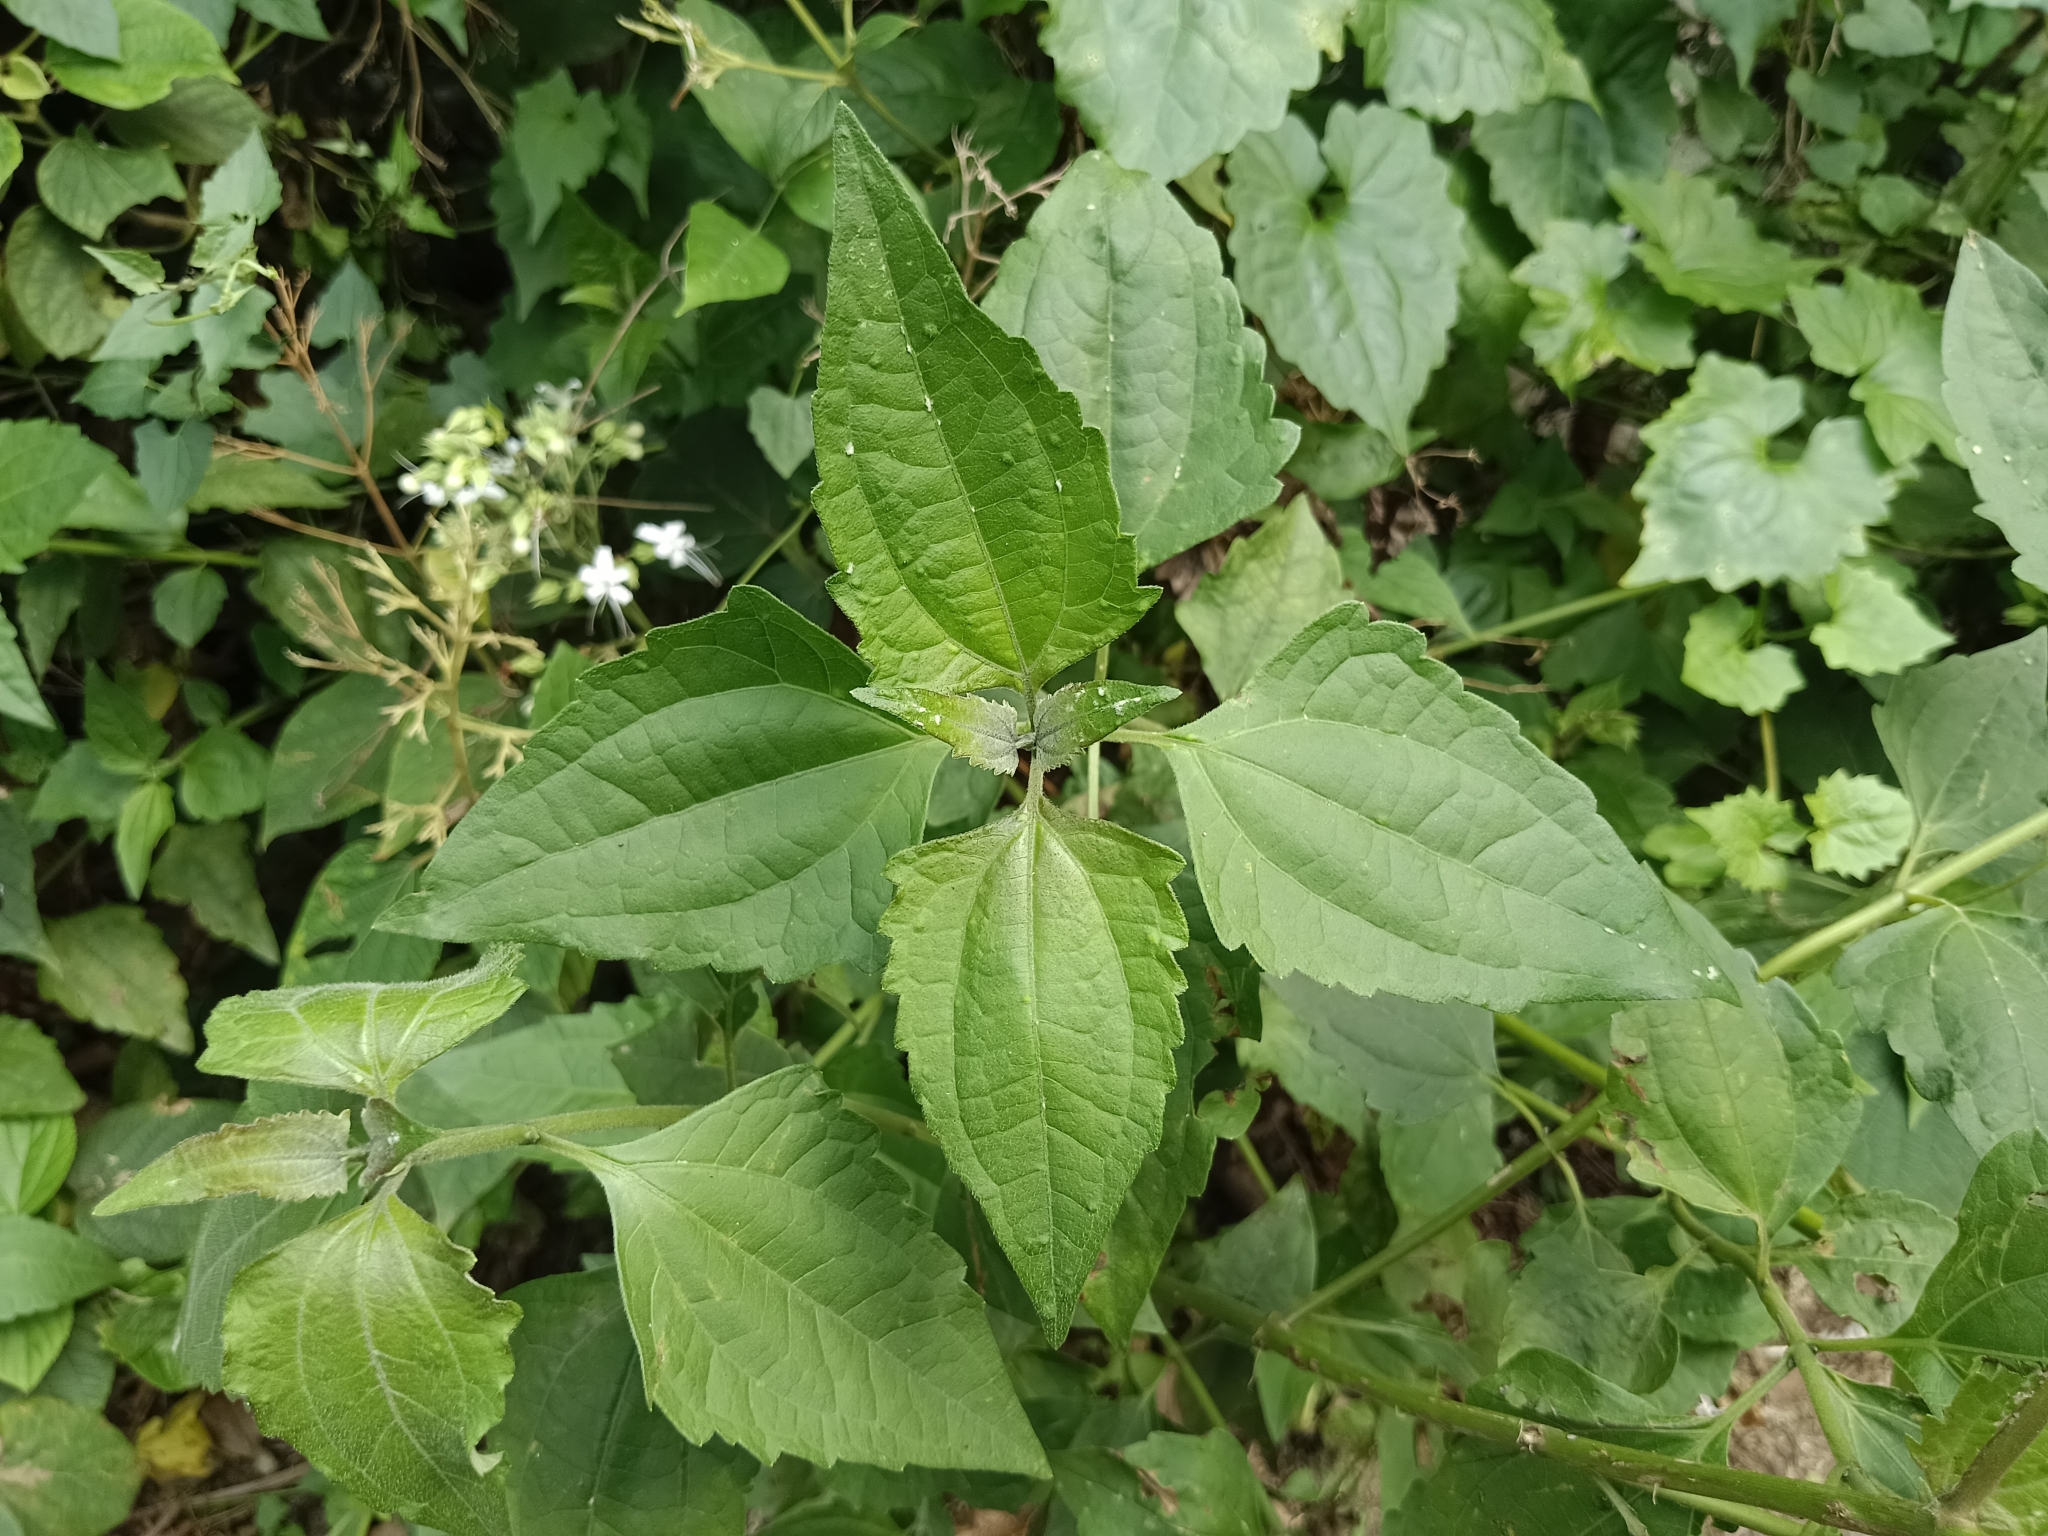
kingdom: Plantae
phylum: Tracheophyta
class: Magnoliopsida
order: Asterales
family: Asteraceae
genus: Chromolaena
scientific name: Chromolaena odorata
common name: Siamweed
